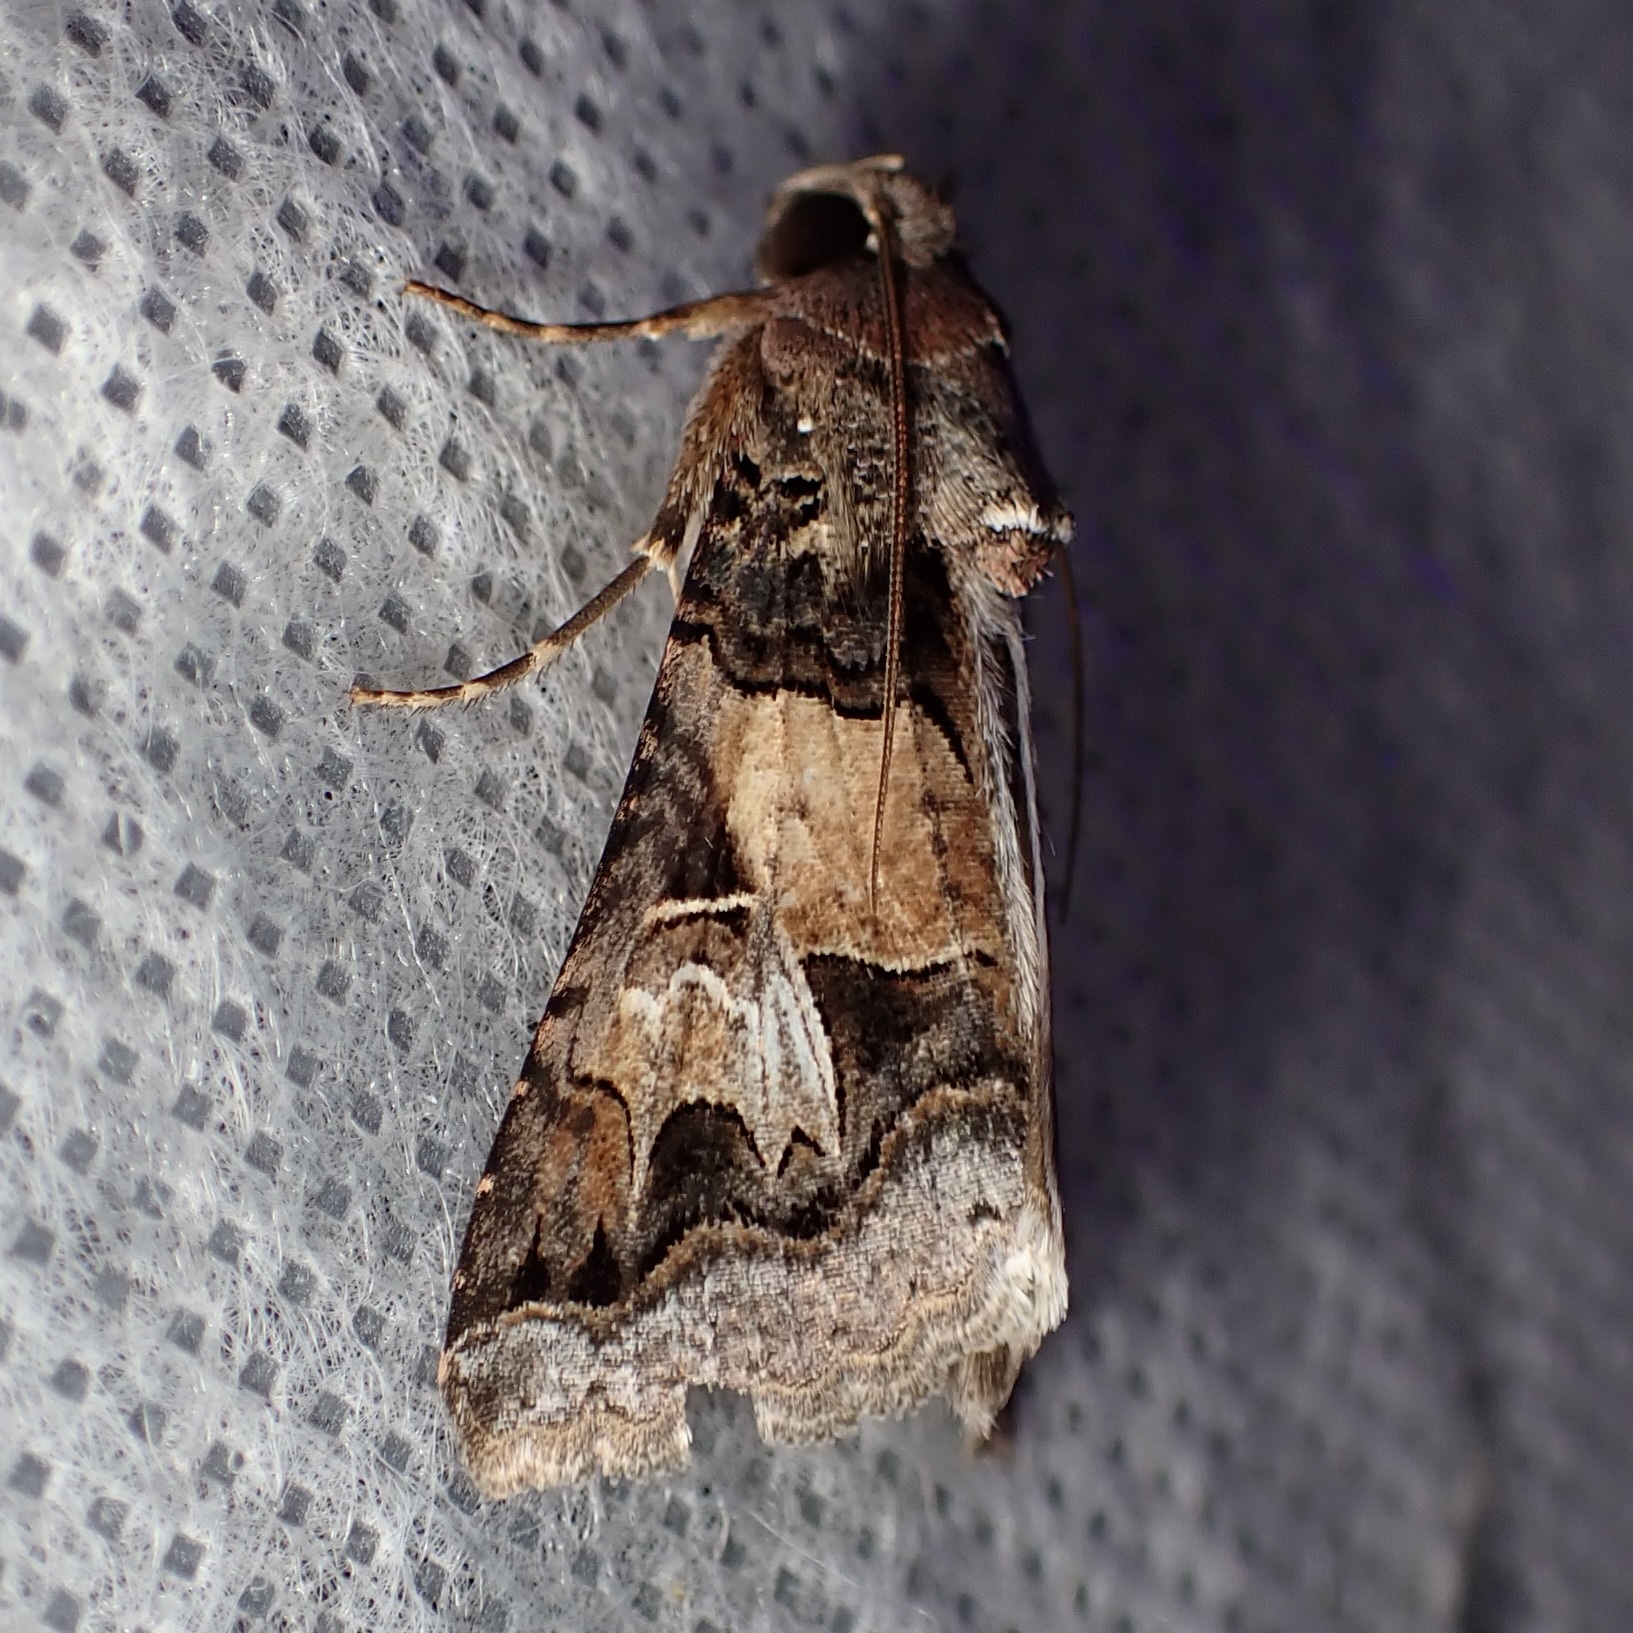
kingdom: Animalia
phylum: Arthropoda
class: Insecta
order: Lepidoptera
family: Erebidae
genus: Melipotis
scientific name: Melipotis novanda
